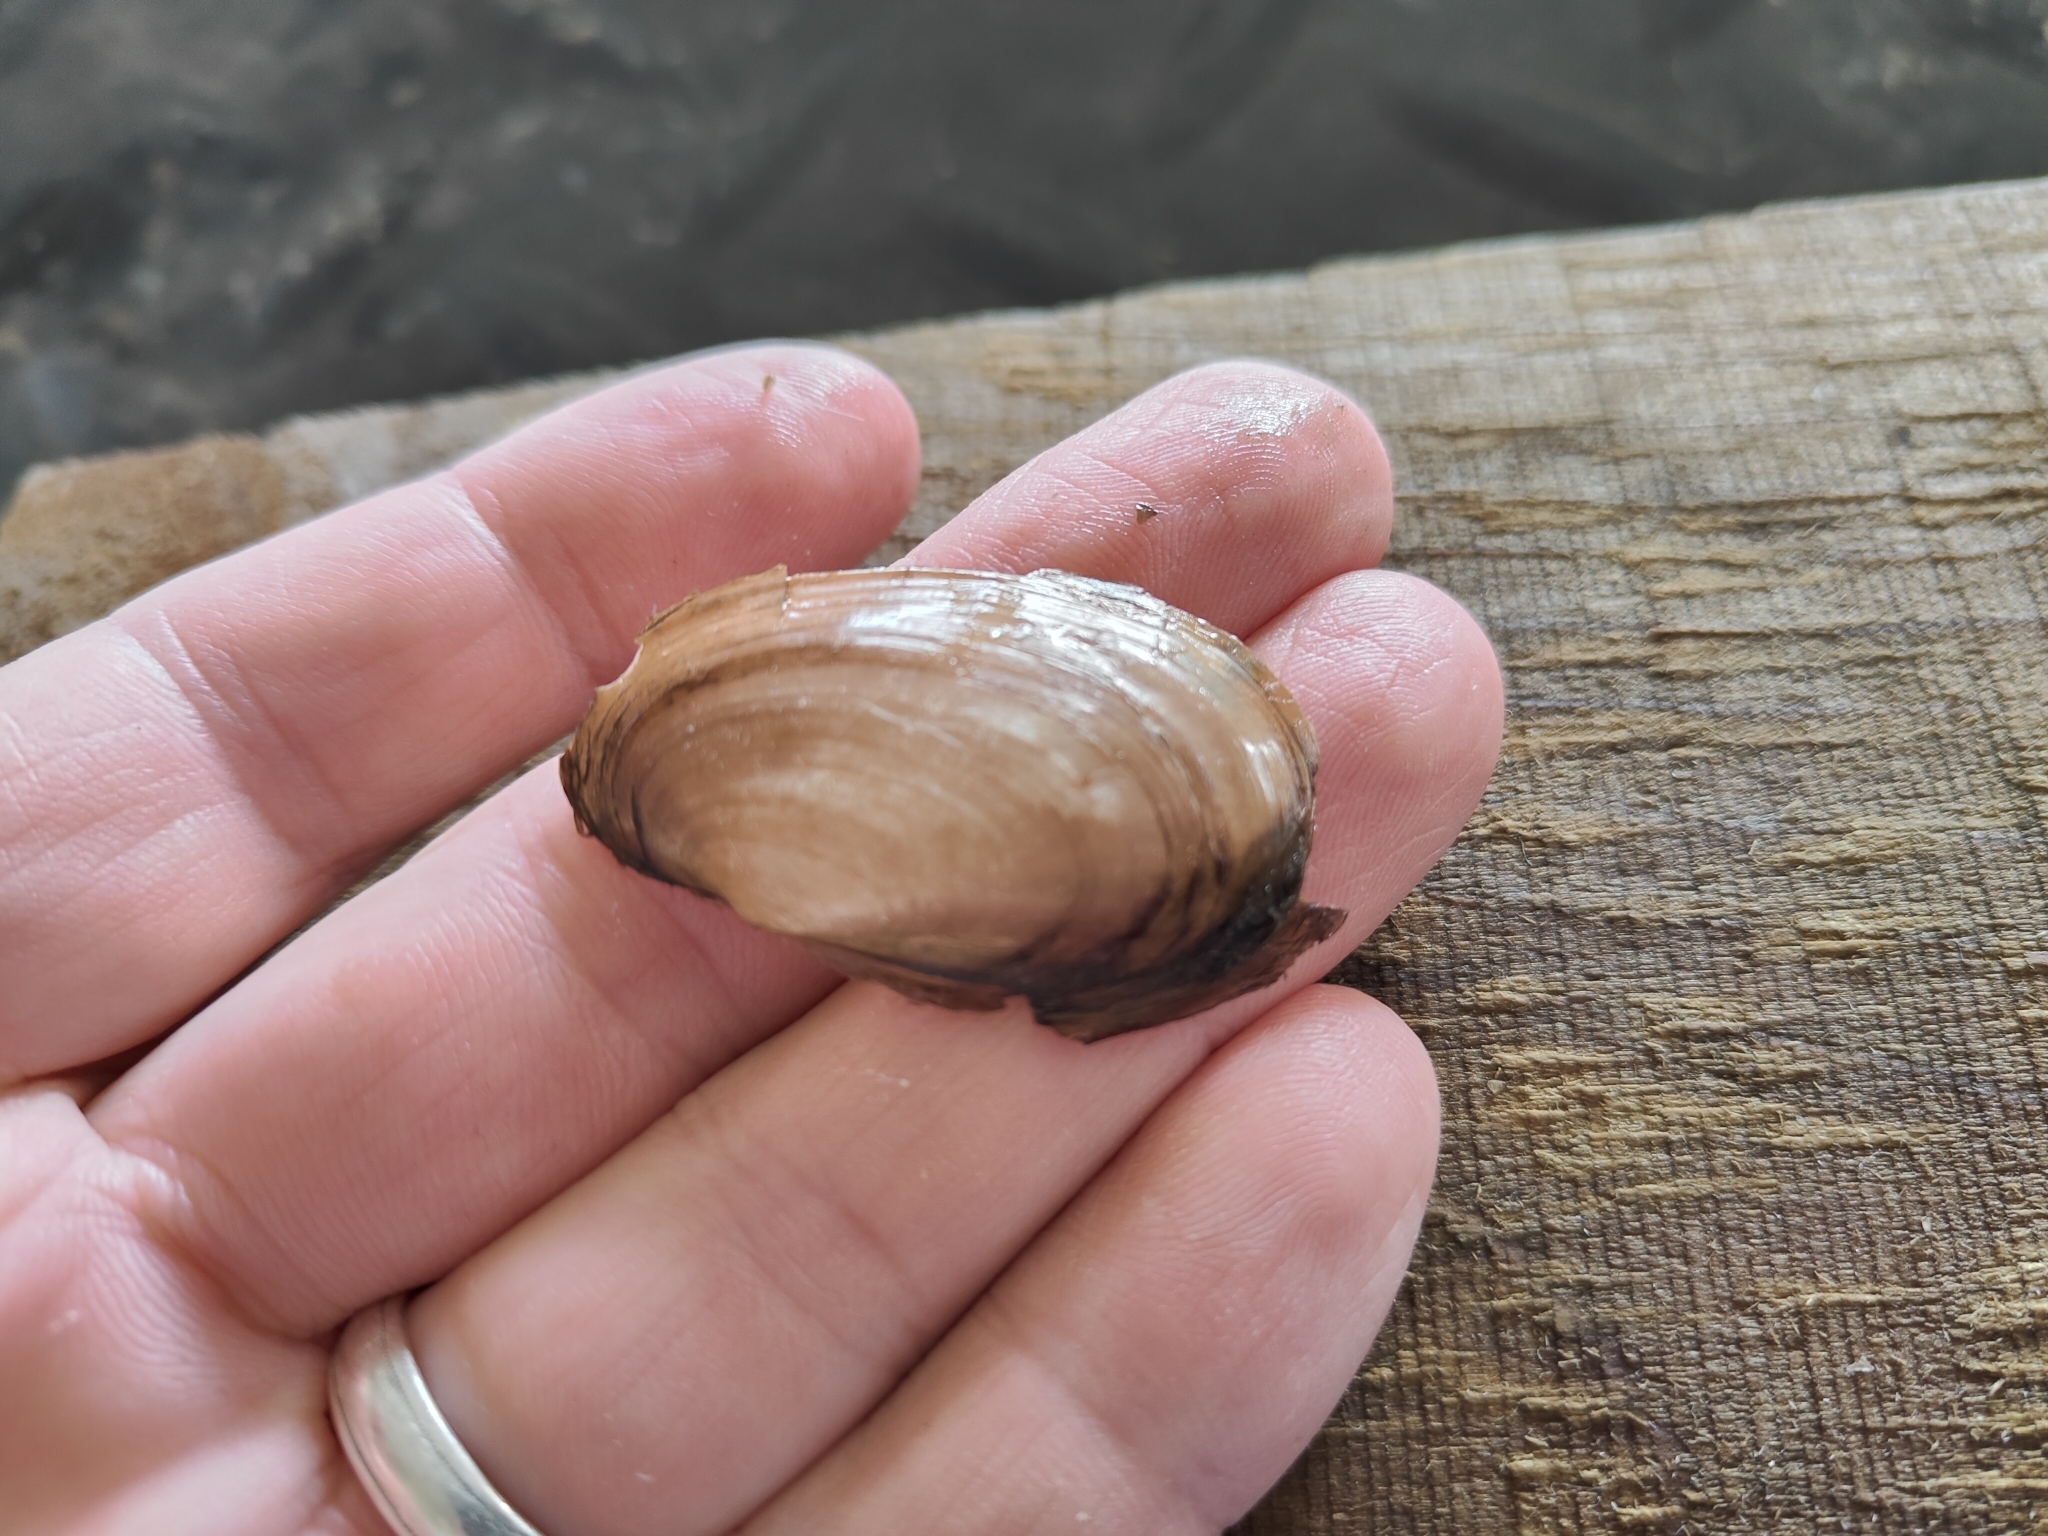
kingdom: Animalia
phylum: Mollusca
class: Bivalvia
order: Unionida
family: Unionidae
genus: Potamilus
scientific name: Potamilus fragilis
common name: Fragile papershell
